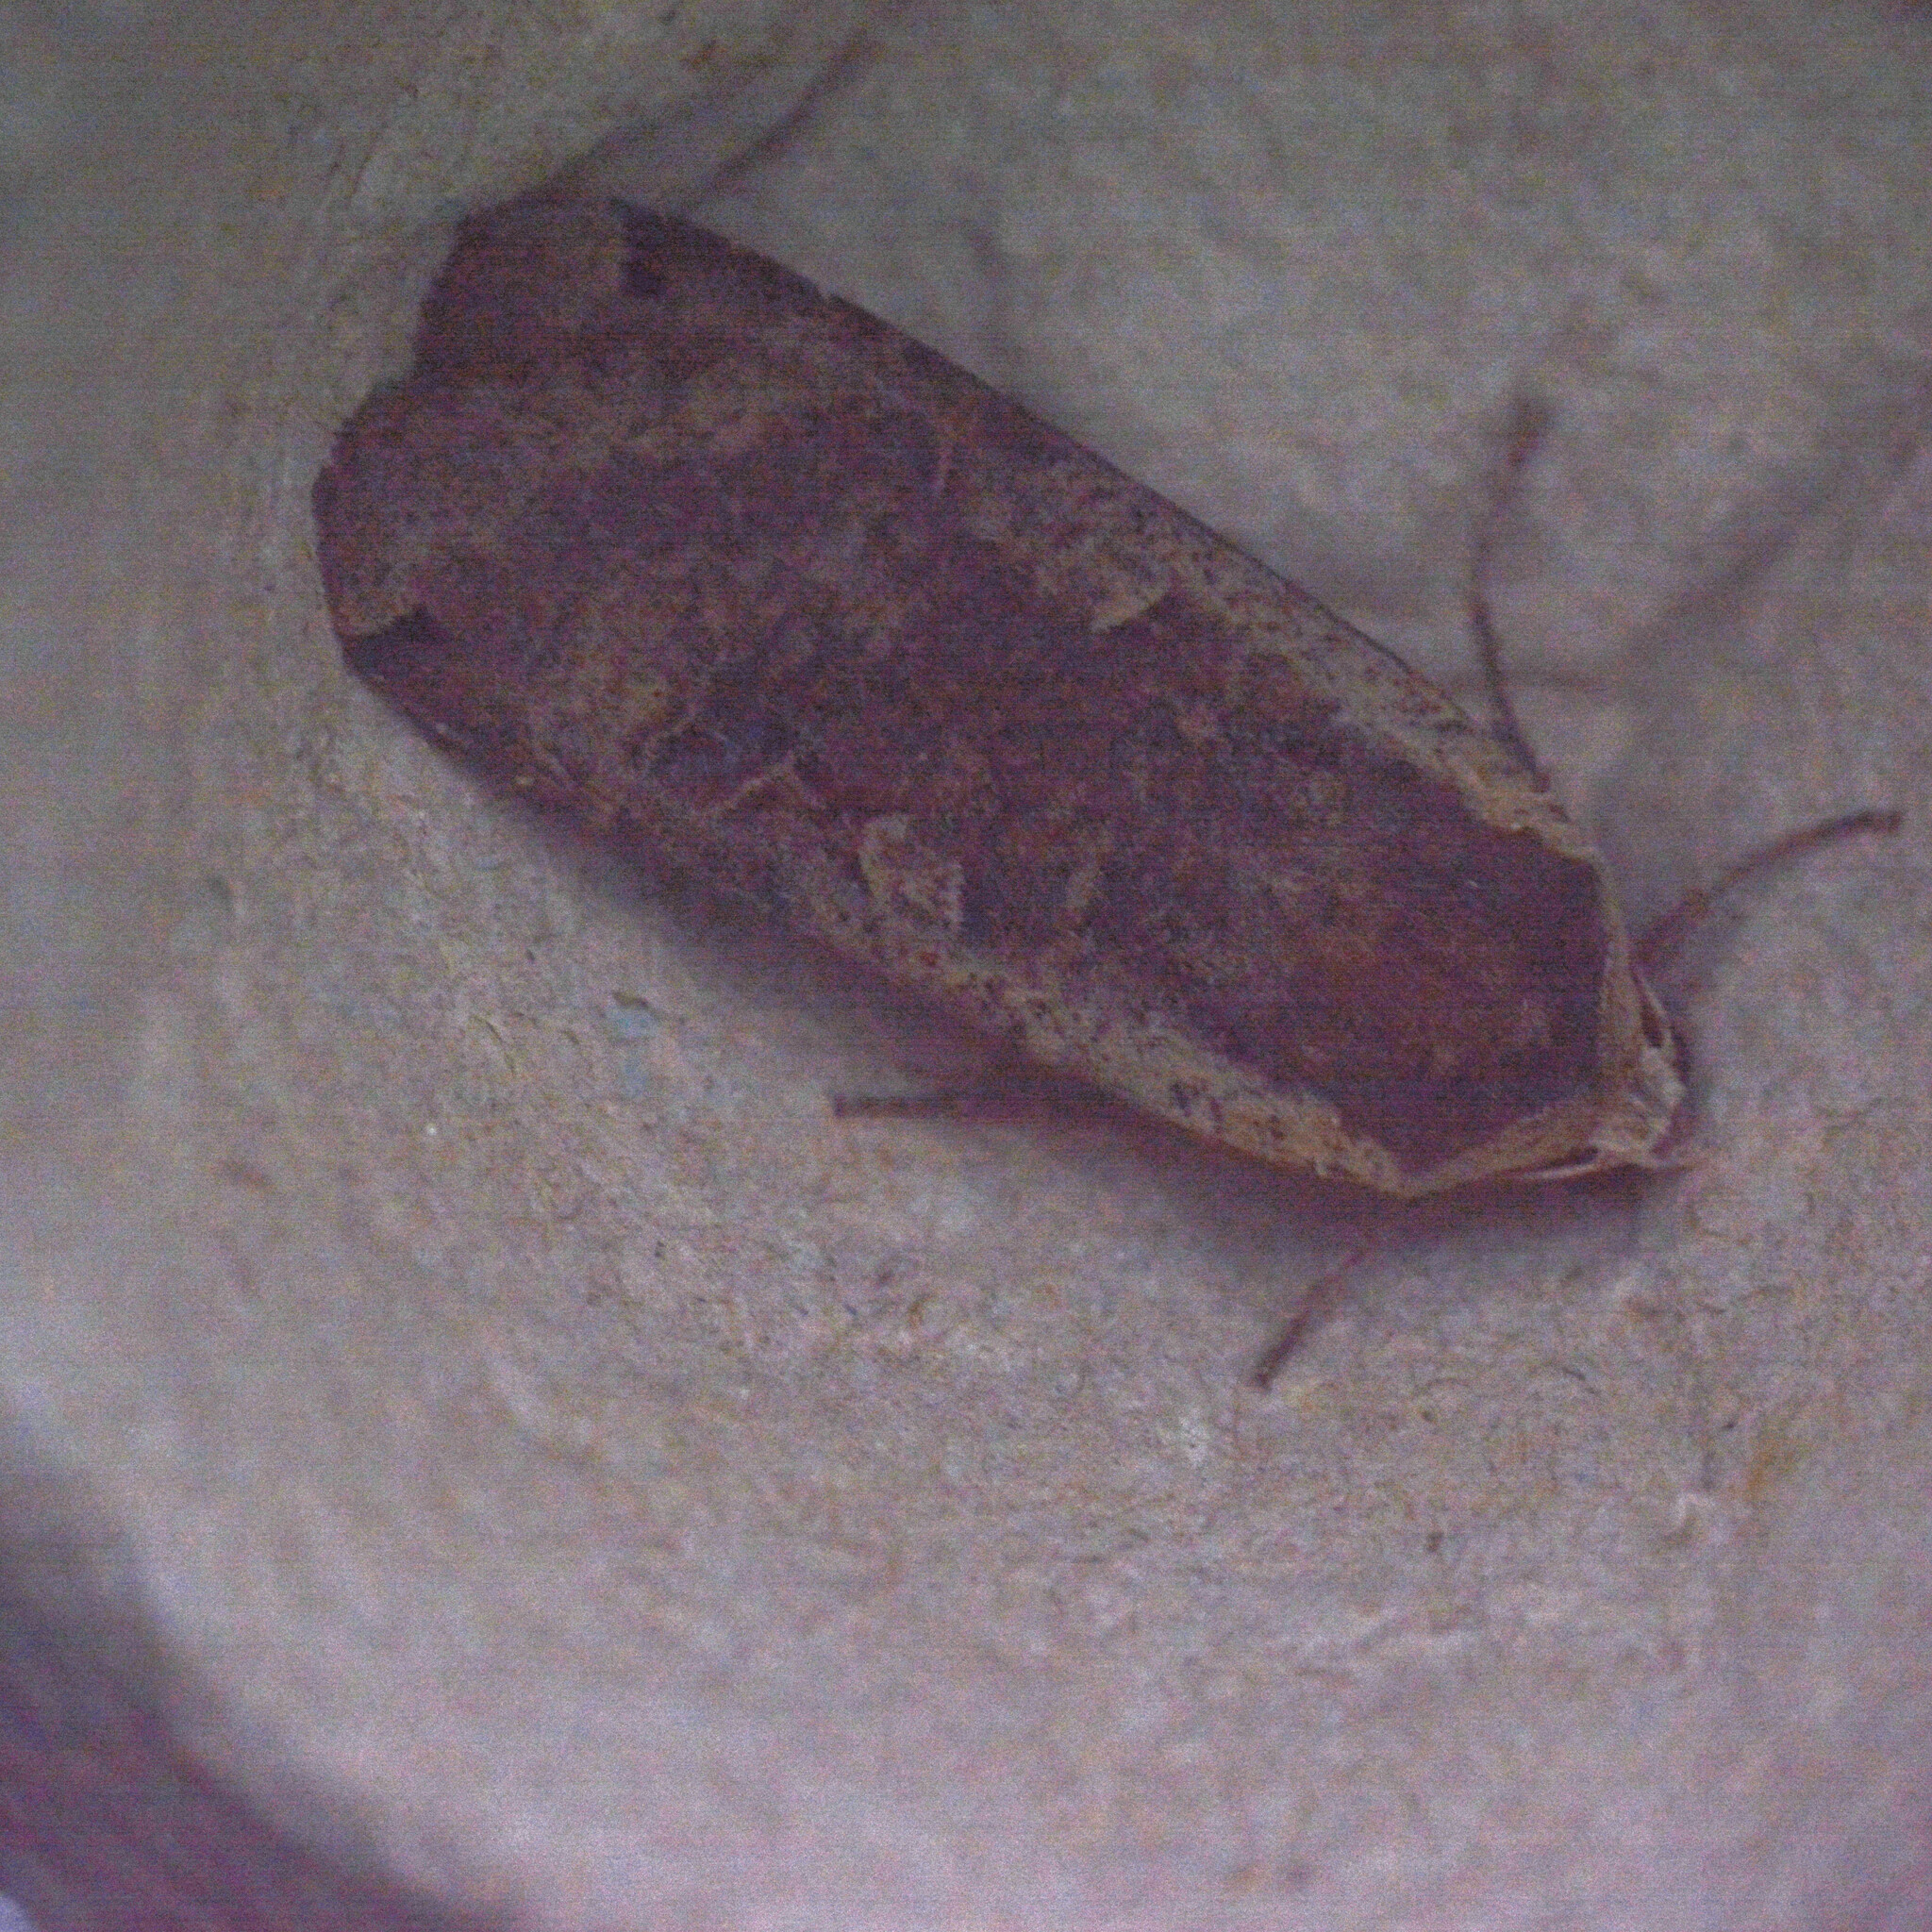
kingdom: Animalia
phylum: Arthropoda
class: Insecta
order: Lepidoptera
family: Noctuidae
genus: Noctua
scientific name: Noctua pronuba
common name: Large yellow underwing
